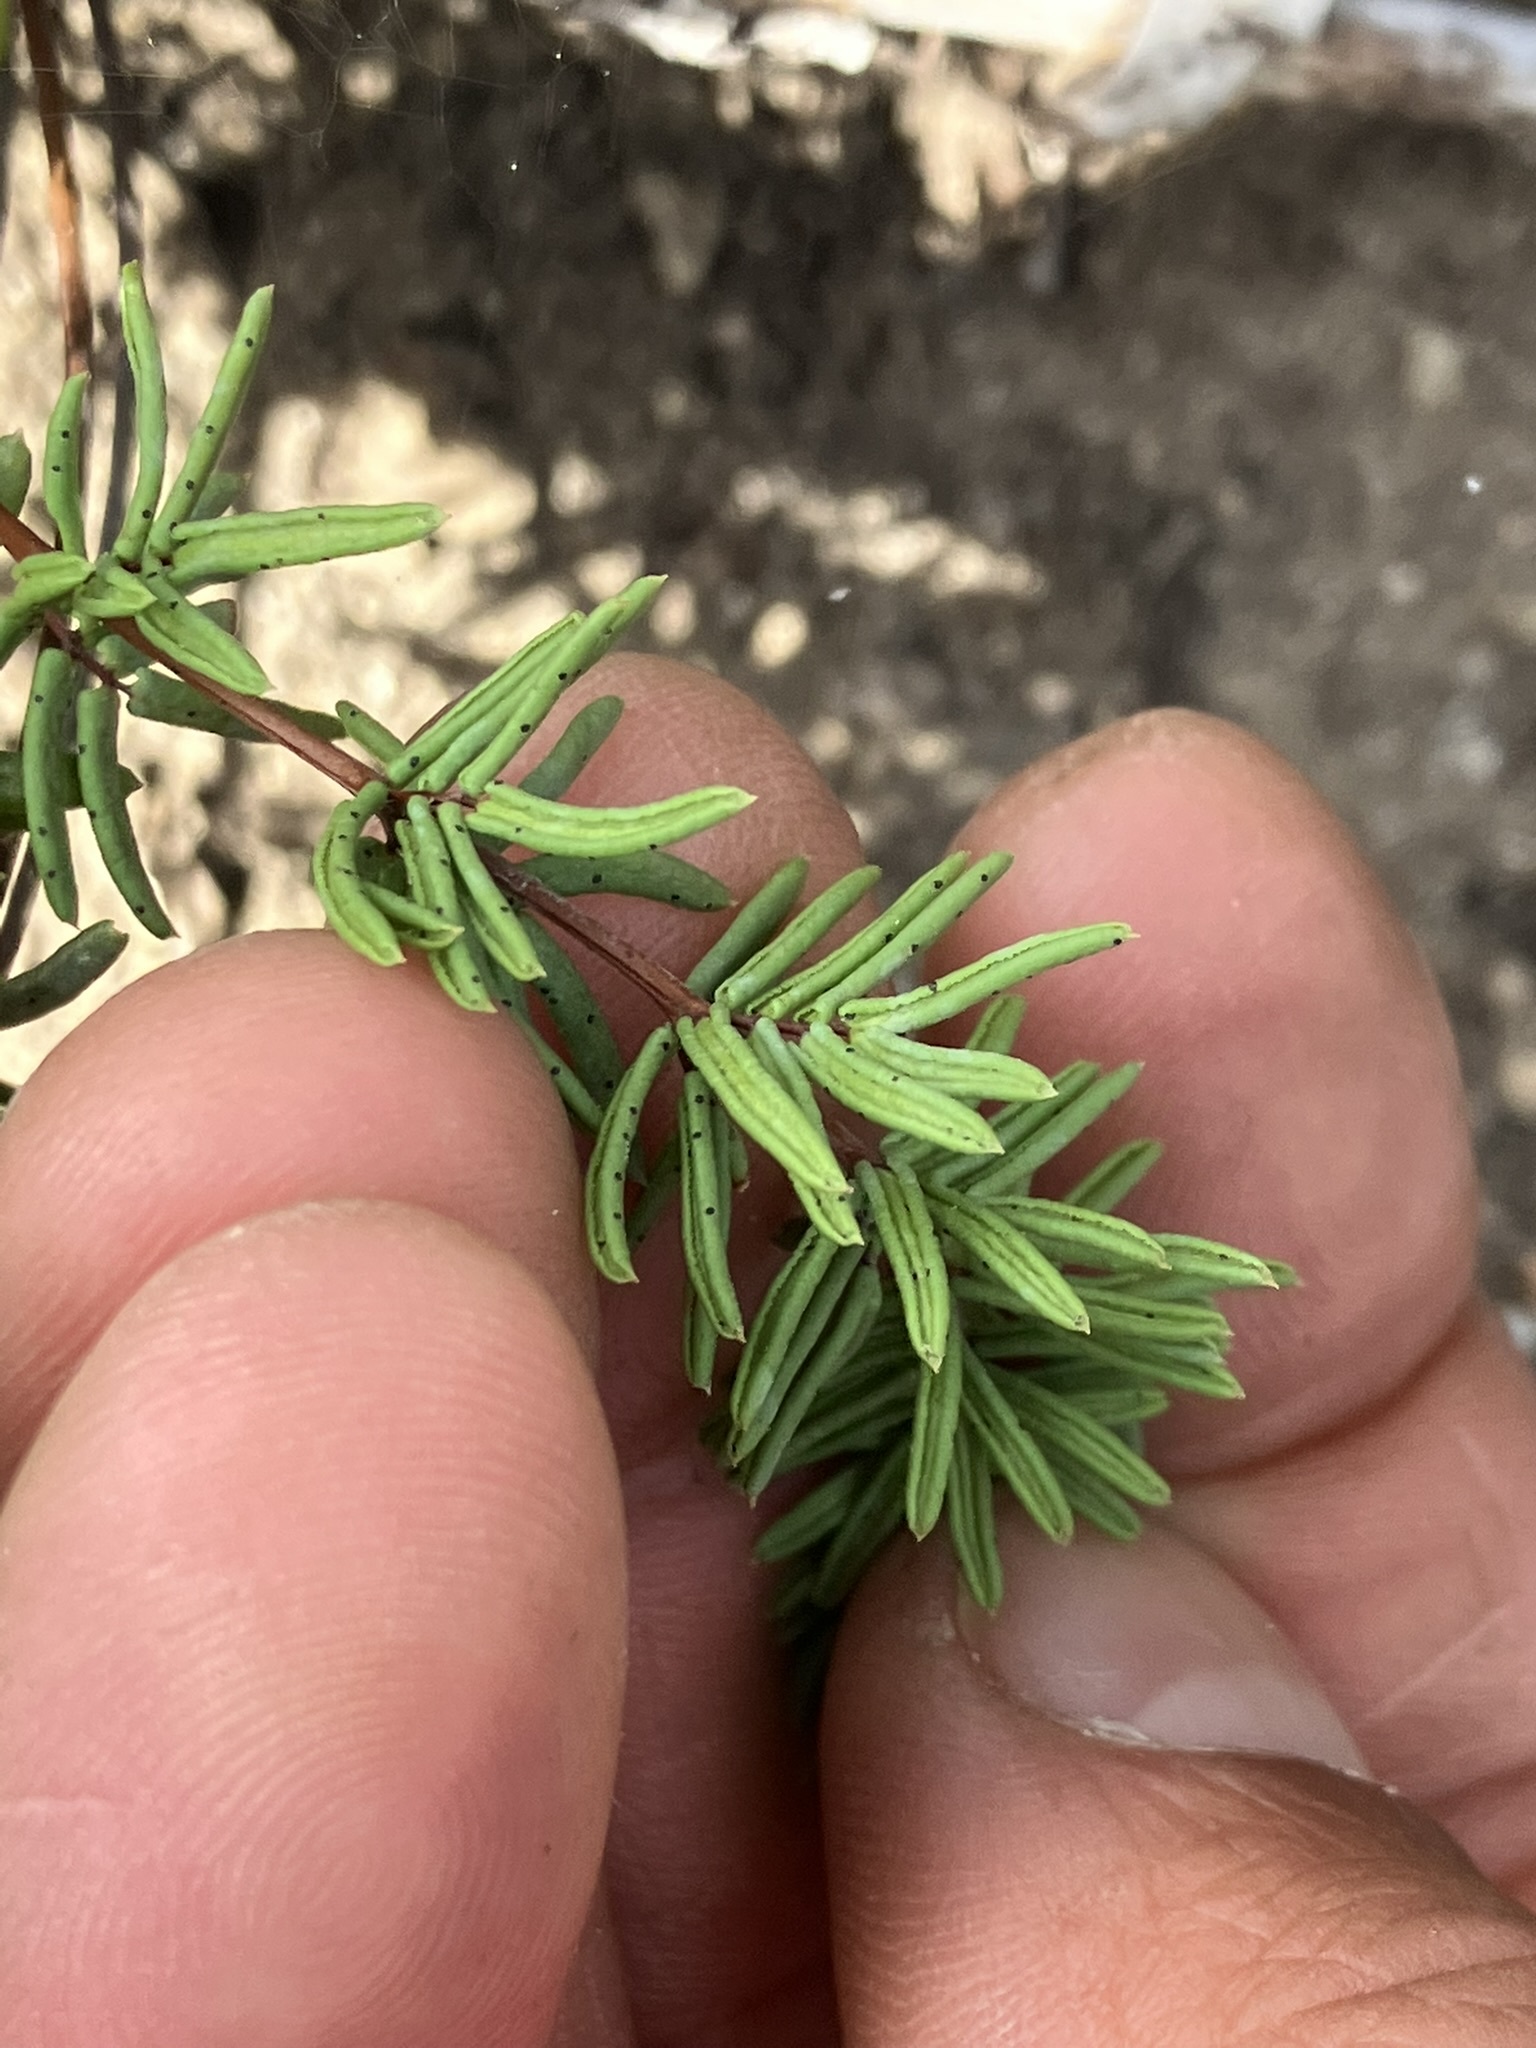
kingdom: Plantae
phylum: Tracheophyta
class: Polypodiopsida
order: Polypodiales
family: Pteridaceae
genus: Pellaea
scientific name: Pellaea brachyptera
